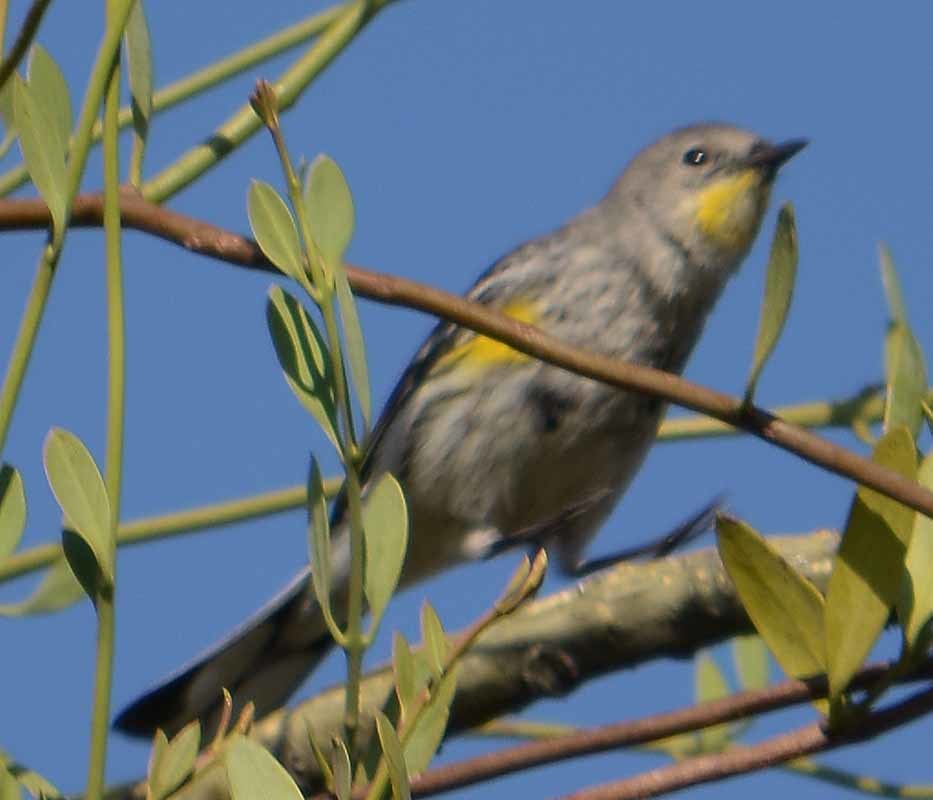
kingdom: Animalia
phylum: Chordata
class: Aves
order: Passeriformes
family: Parulidae
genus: Setophaga
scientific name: Setophaga coronata
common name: Myrtle warbler
